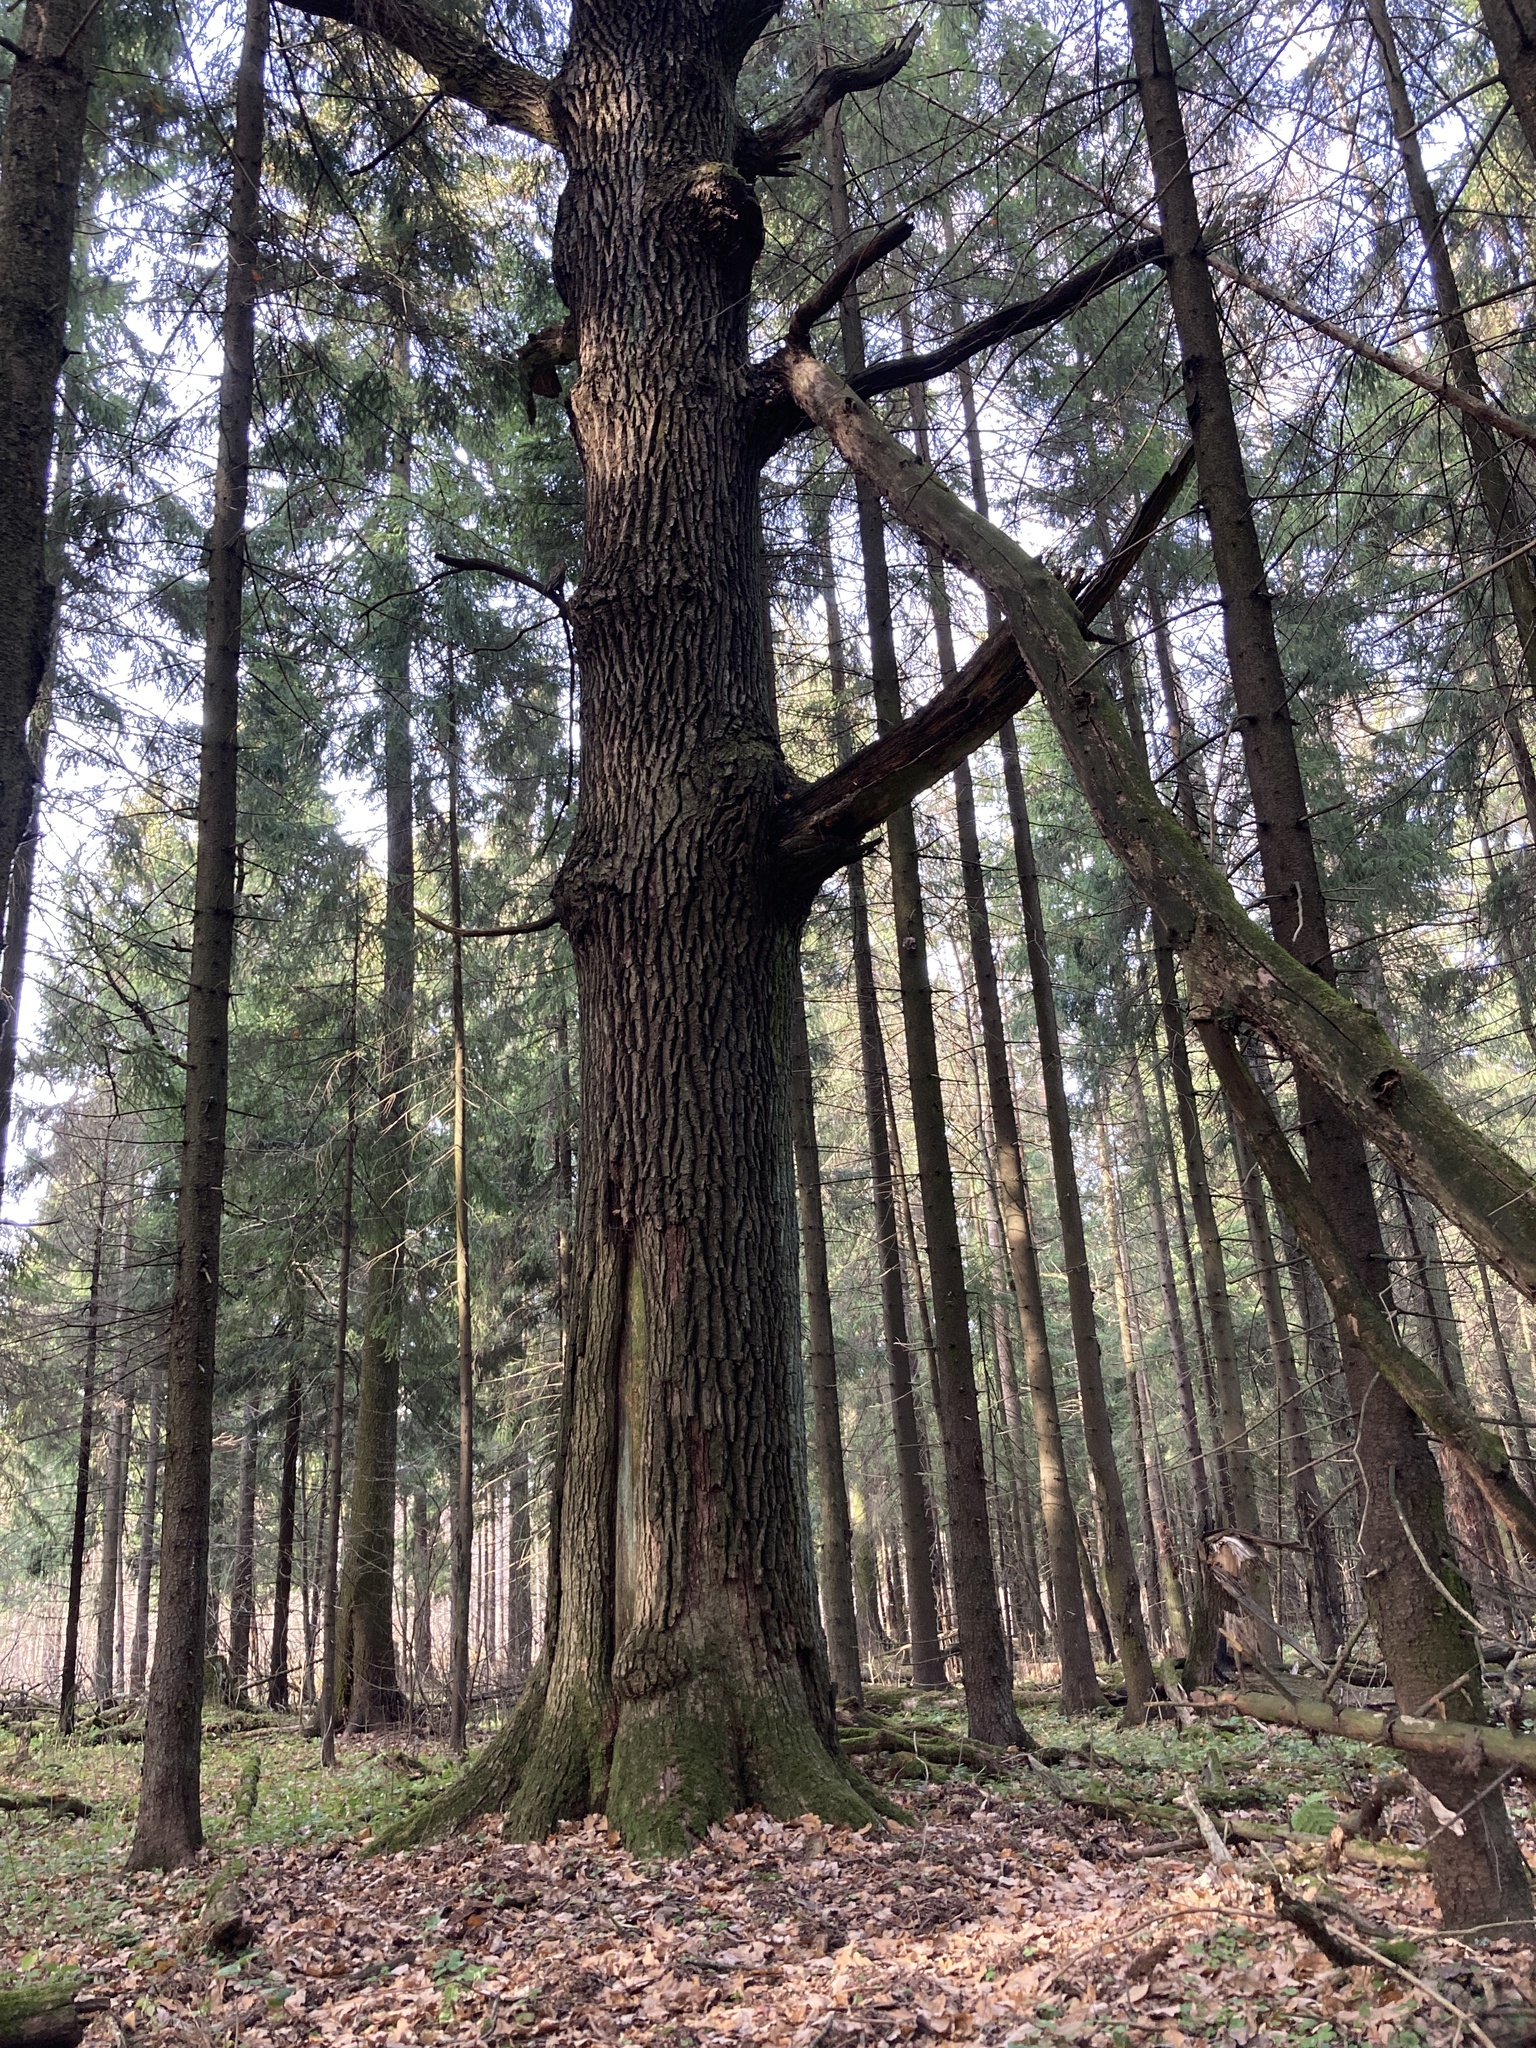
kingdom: Plantae
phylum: Tracheophyta
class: Magnoliopsida
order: Fagales
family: Fagaceae
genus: Quercus
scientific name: Quercus robur
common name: Pedunculate oak
